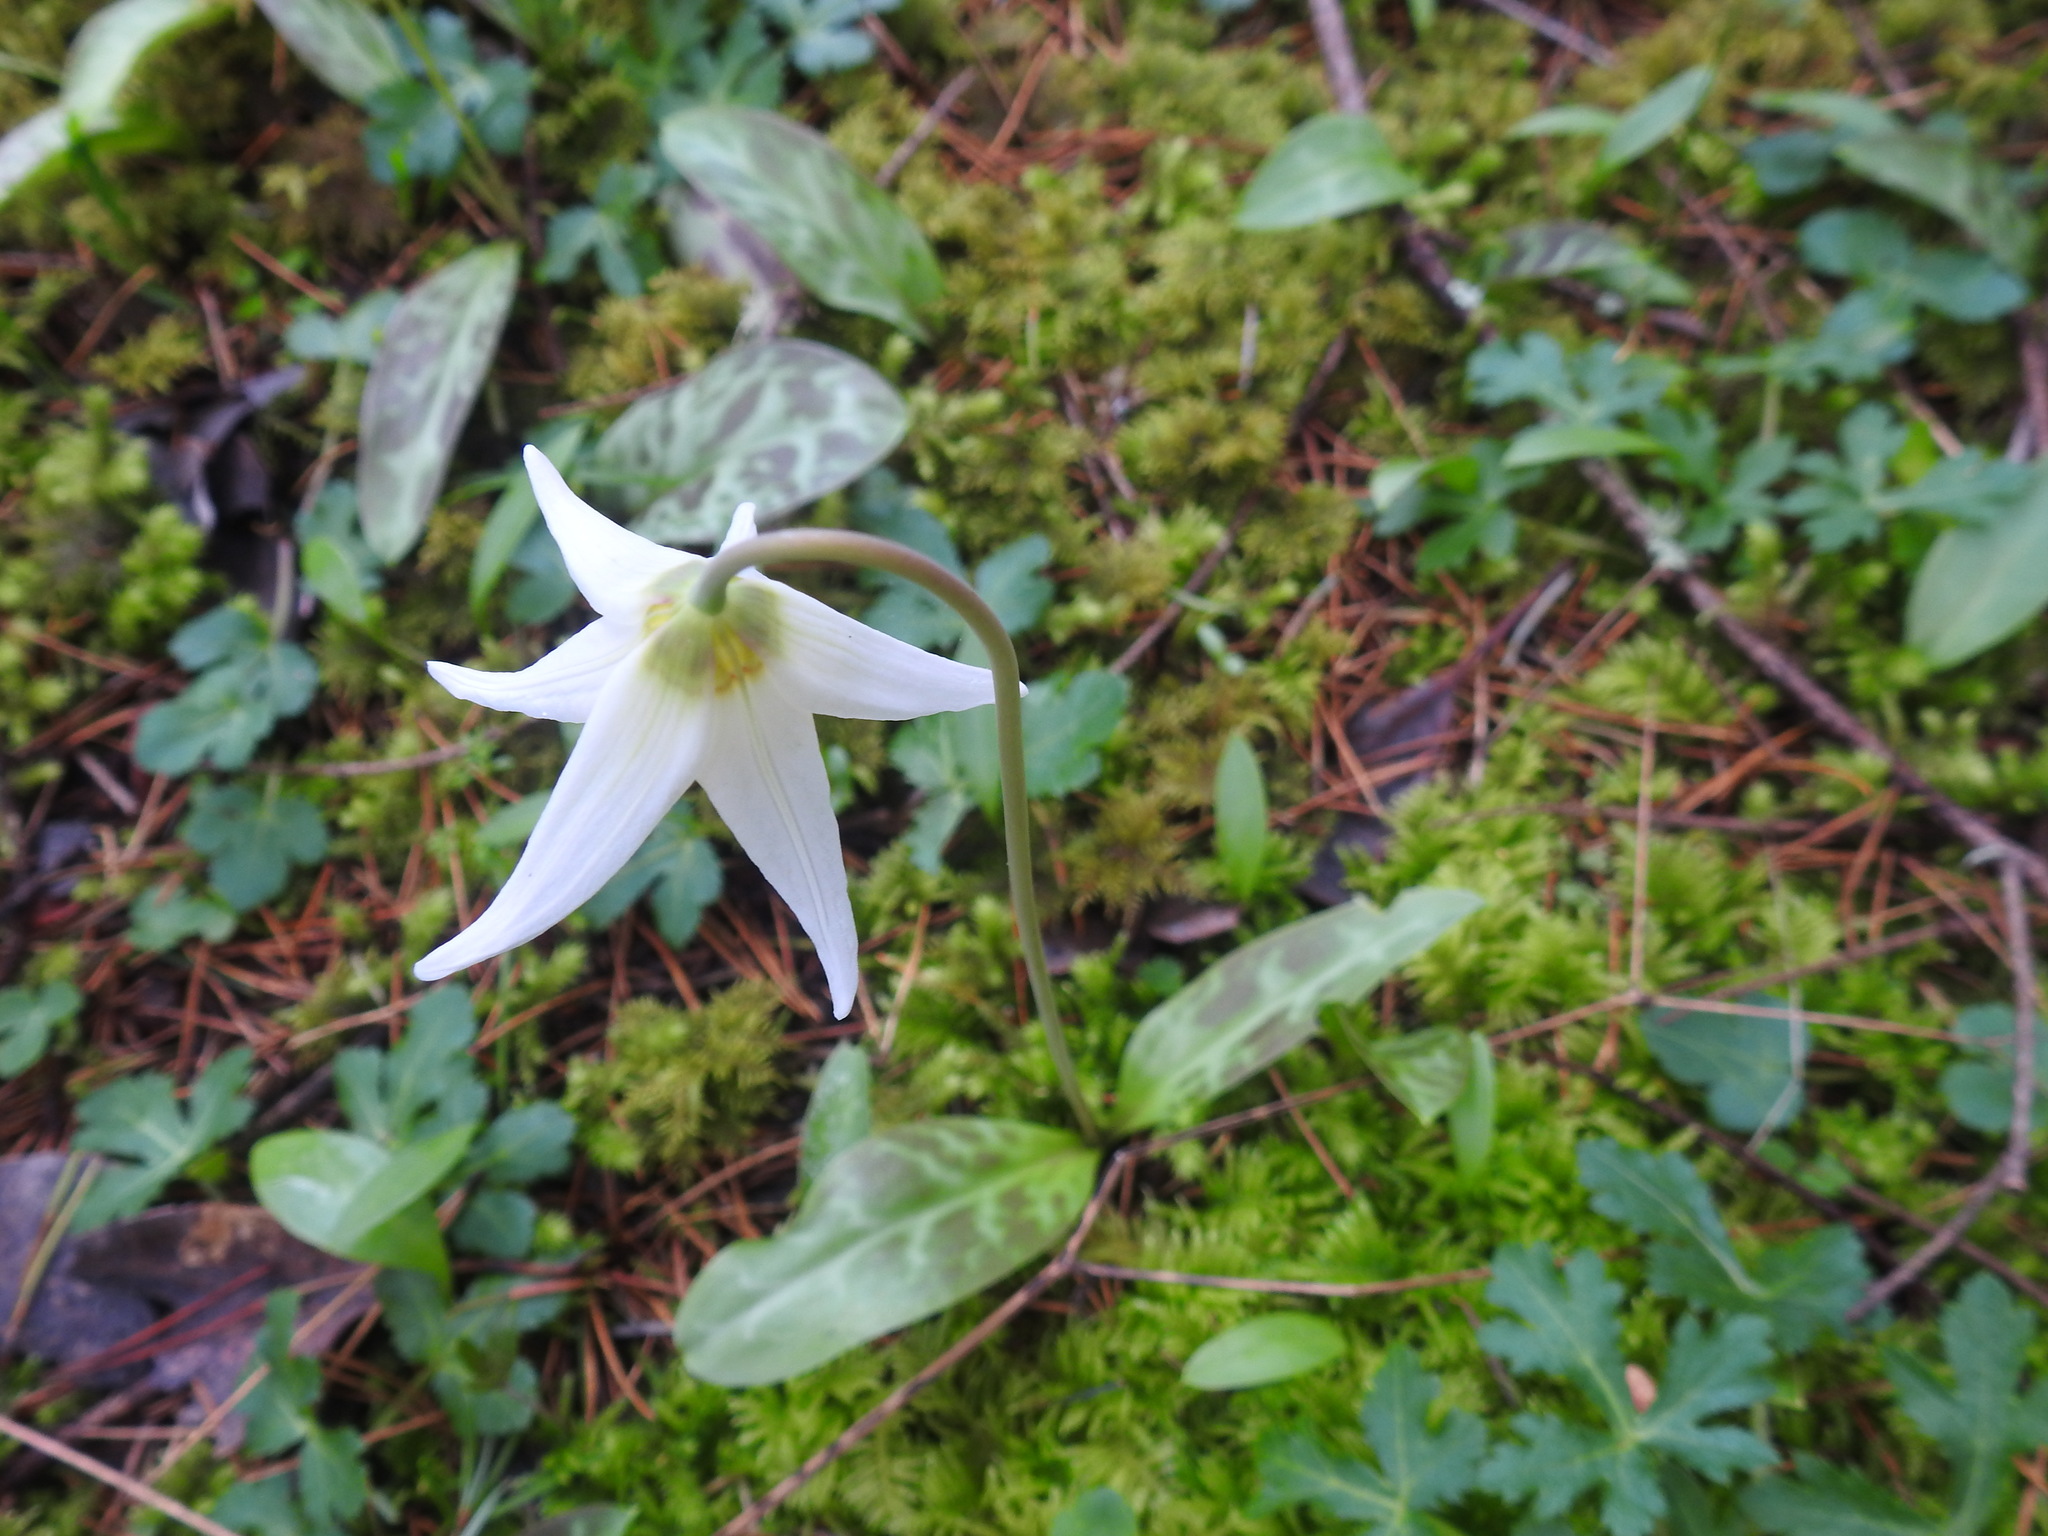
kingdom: Plantae
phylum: Tracheophyta
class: Liliopsida
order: Liliales
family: Liliaceae
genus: Erythronium
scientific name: Erythronium oregonum
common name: Giant adder's-tongue
